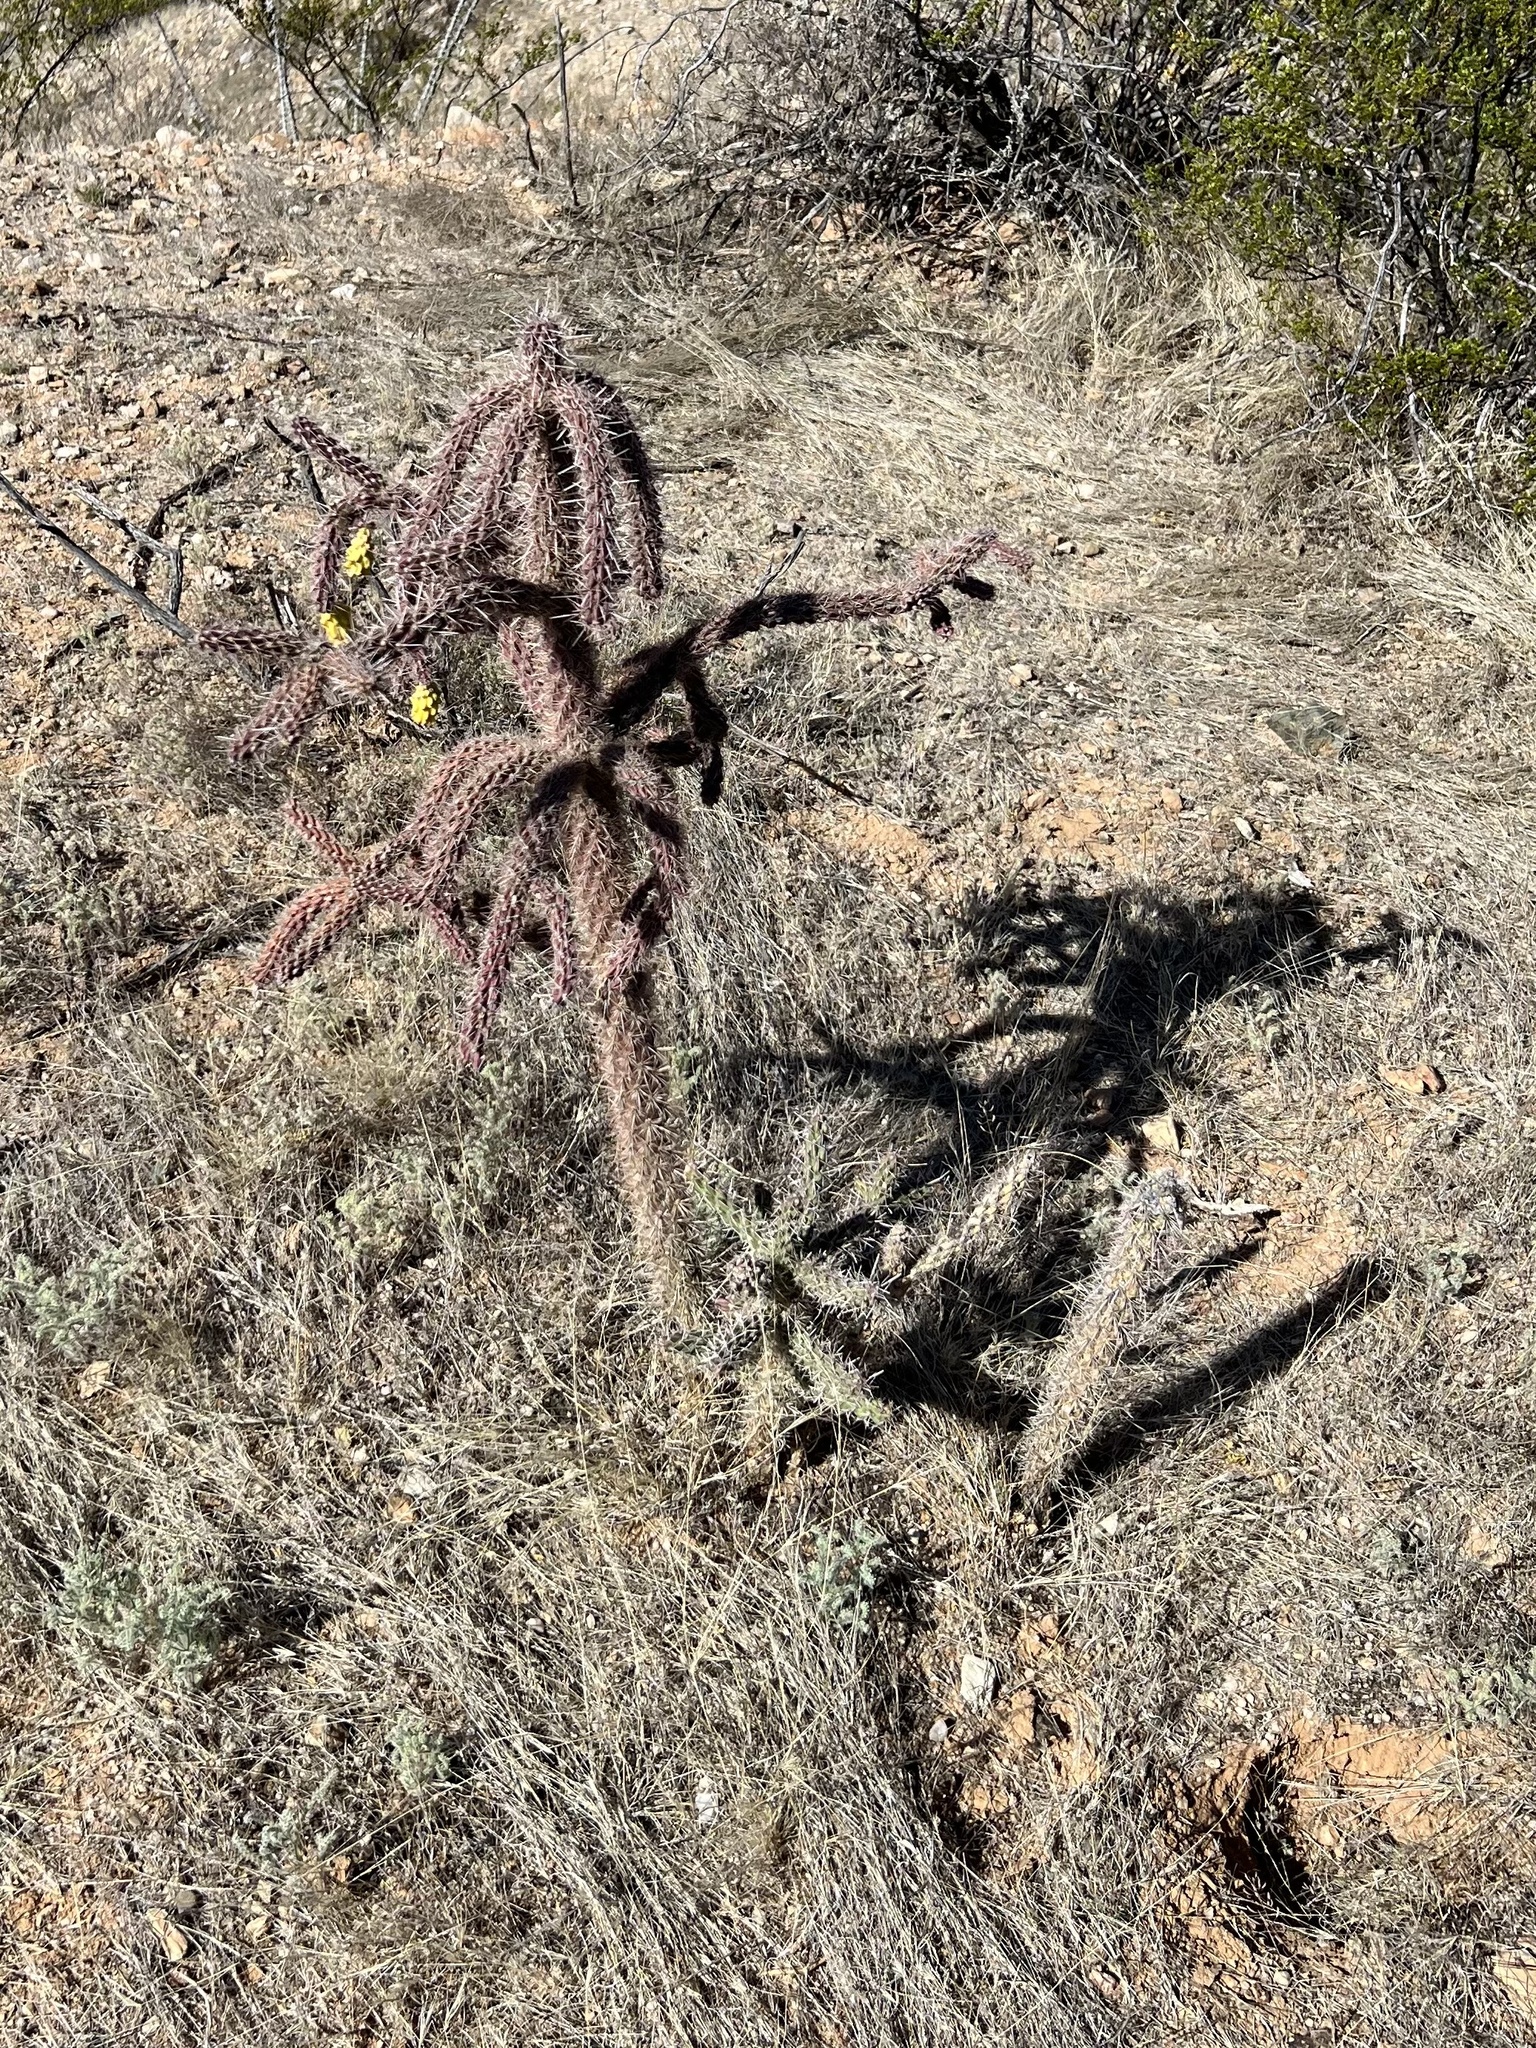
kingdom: Plantae
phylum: Tracheophyta
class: Magnoliopsida
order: Caryophyllales
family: Cactaceae
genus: Cylindropuntia
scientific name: Cylindropuntia imbricata
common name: Candelabrum cactus
